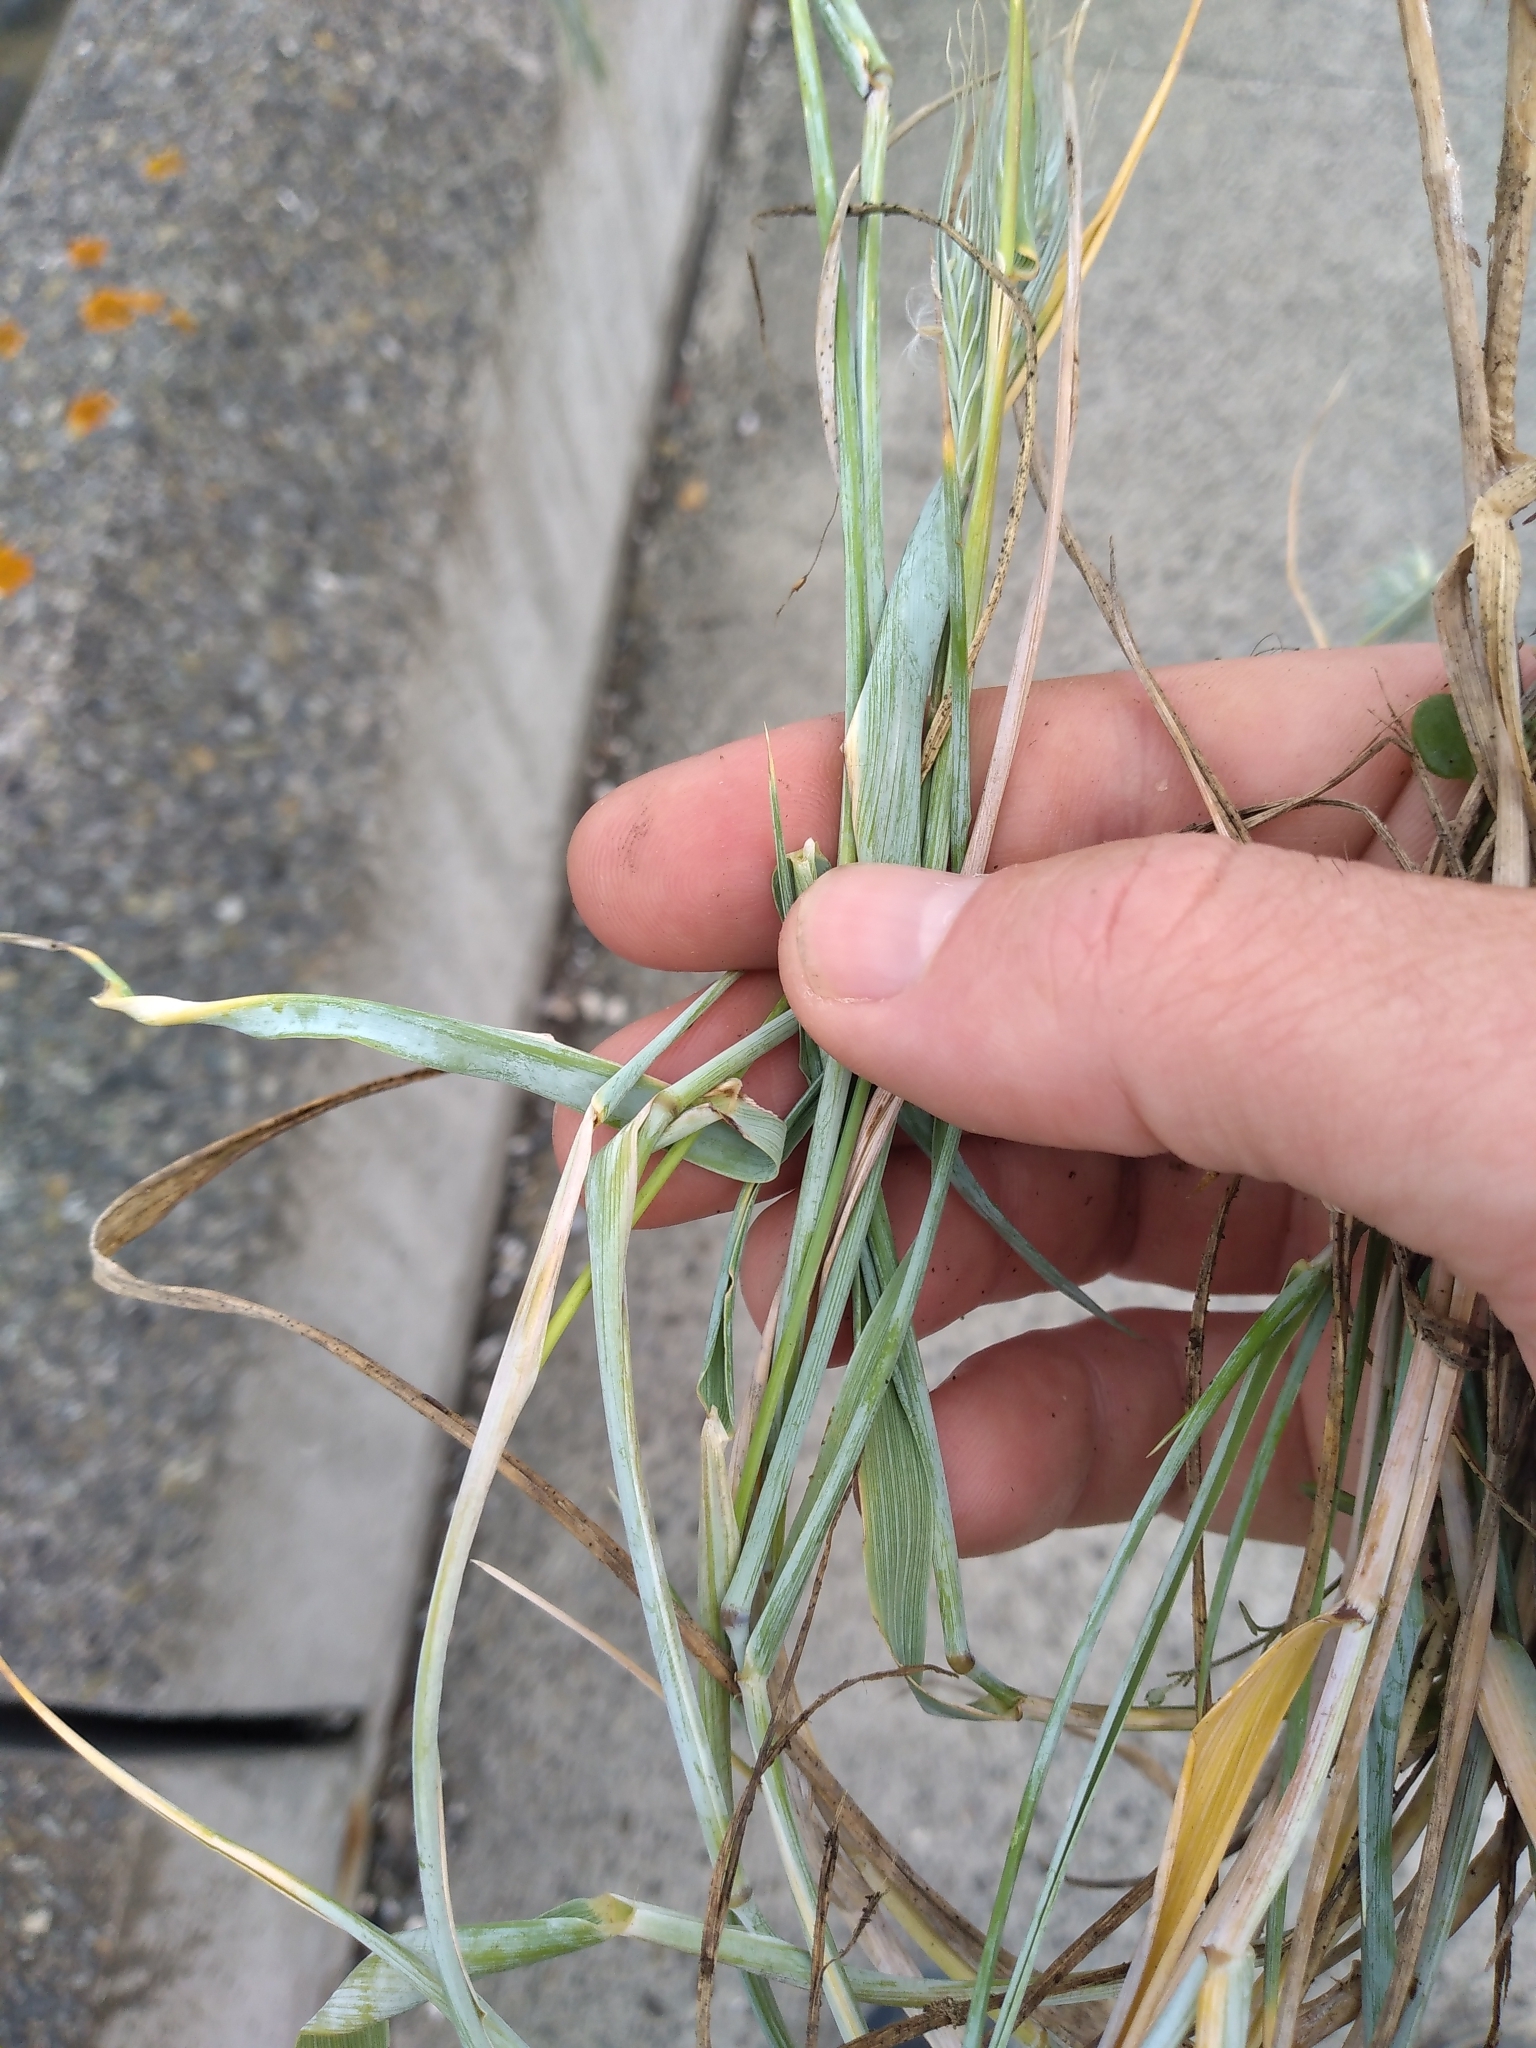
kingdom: Plantae
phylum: Tracheophyta
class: Liliopsida
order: Poales
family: Poaceae
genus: Anthosachne
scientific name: Anthosachne solandri
